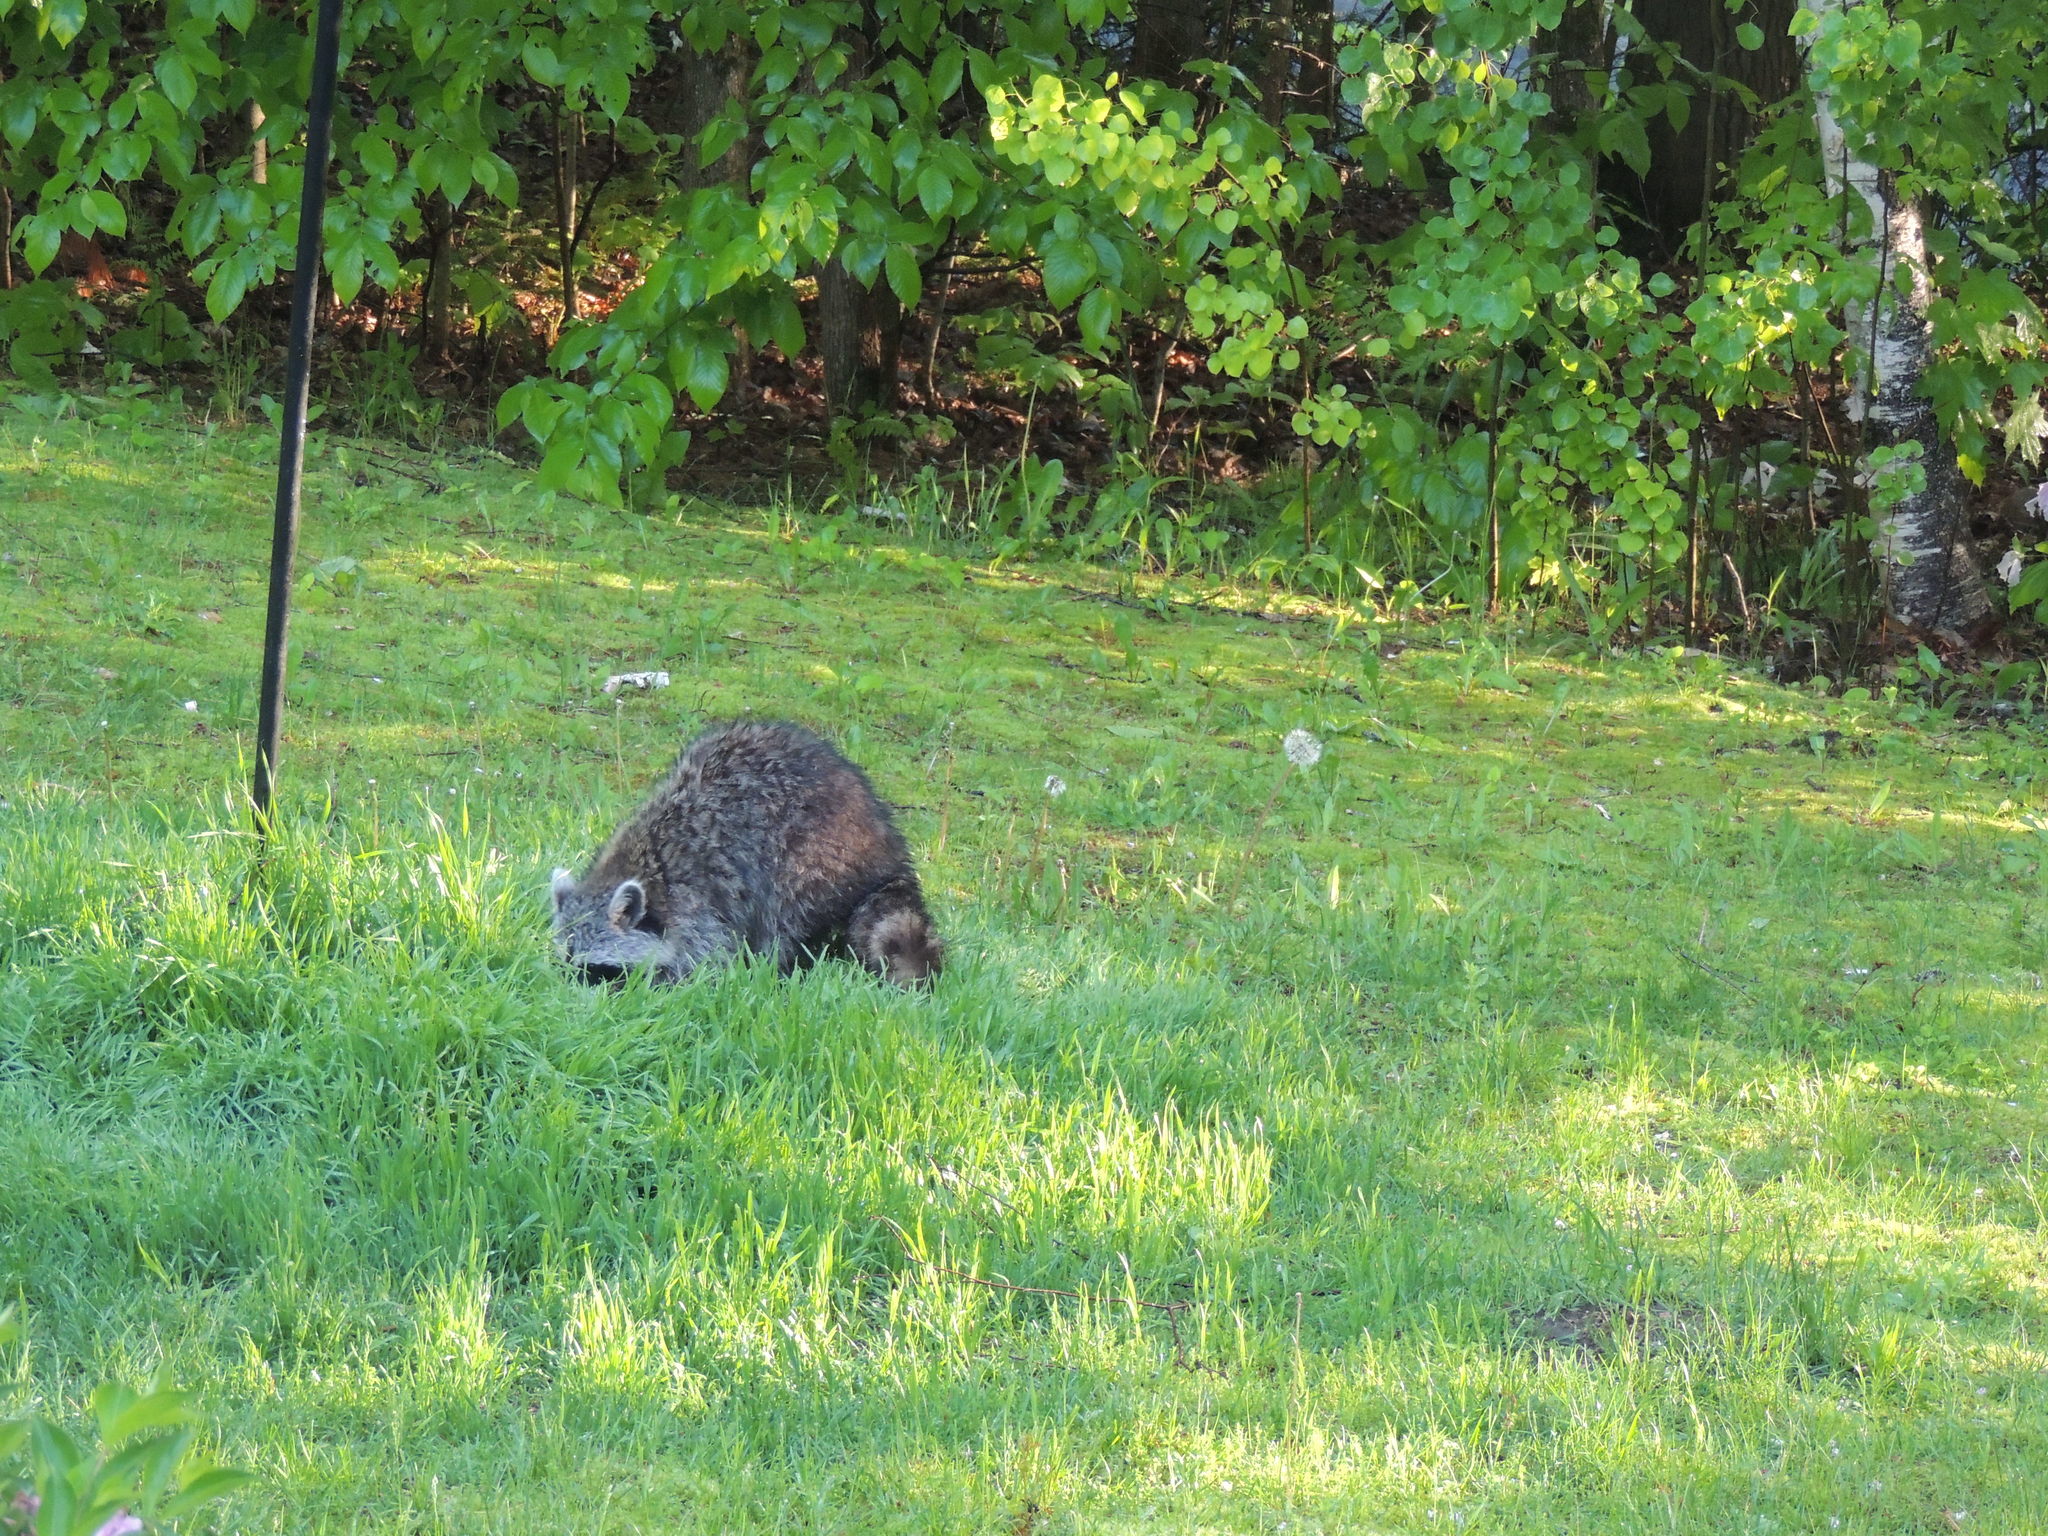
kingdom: Animalia
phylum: Chordata
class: Mammalia
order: Carnivora
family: Procyonidae
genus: Procyon
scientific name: Procyon lotor
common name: Raccoon
